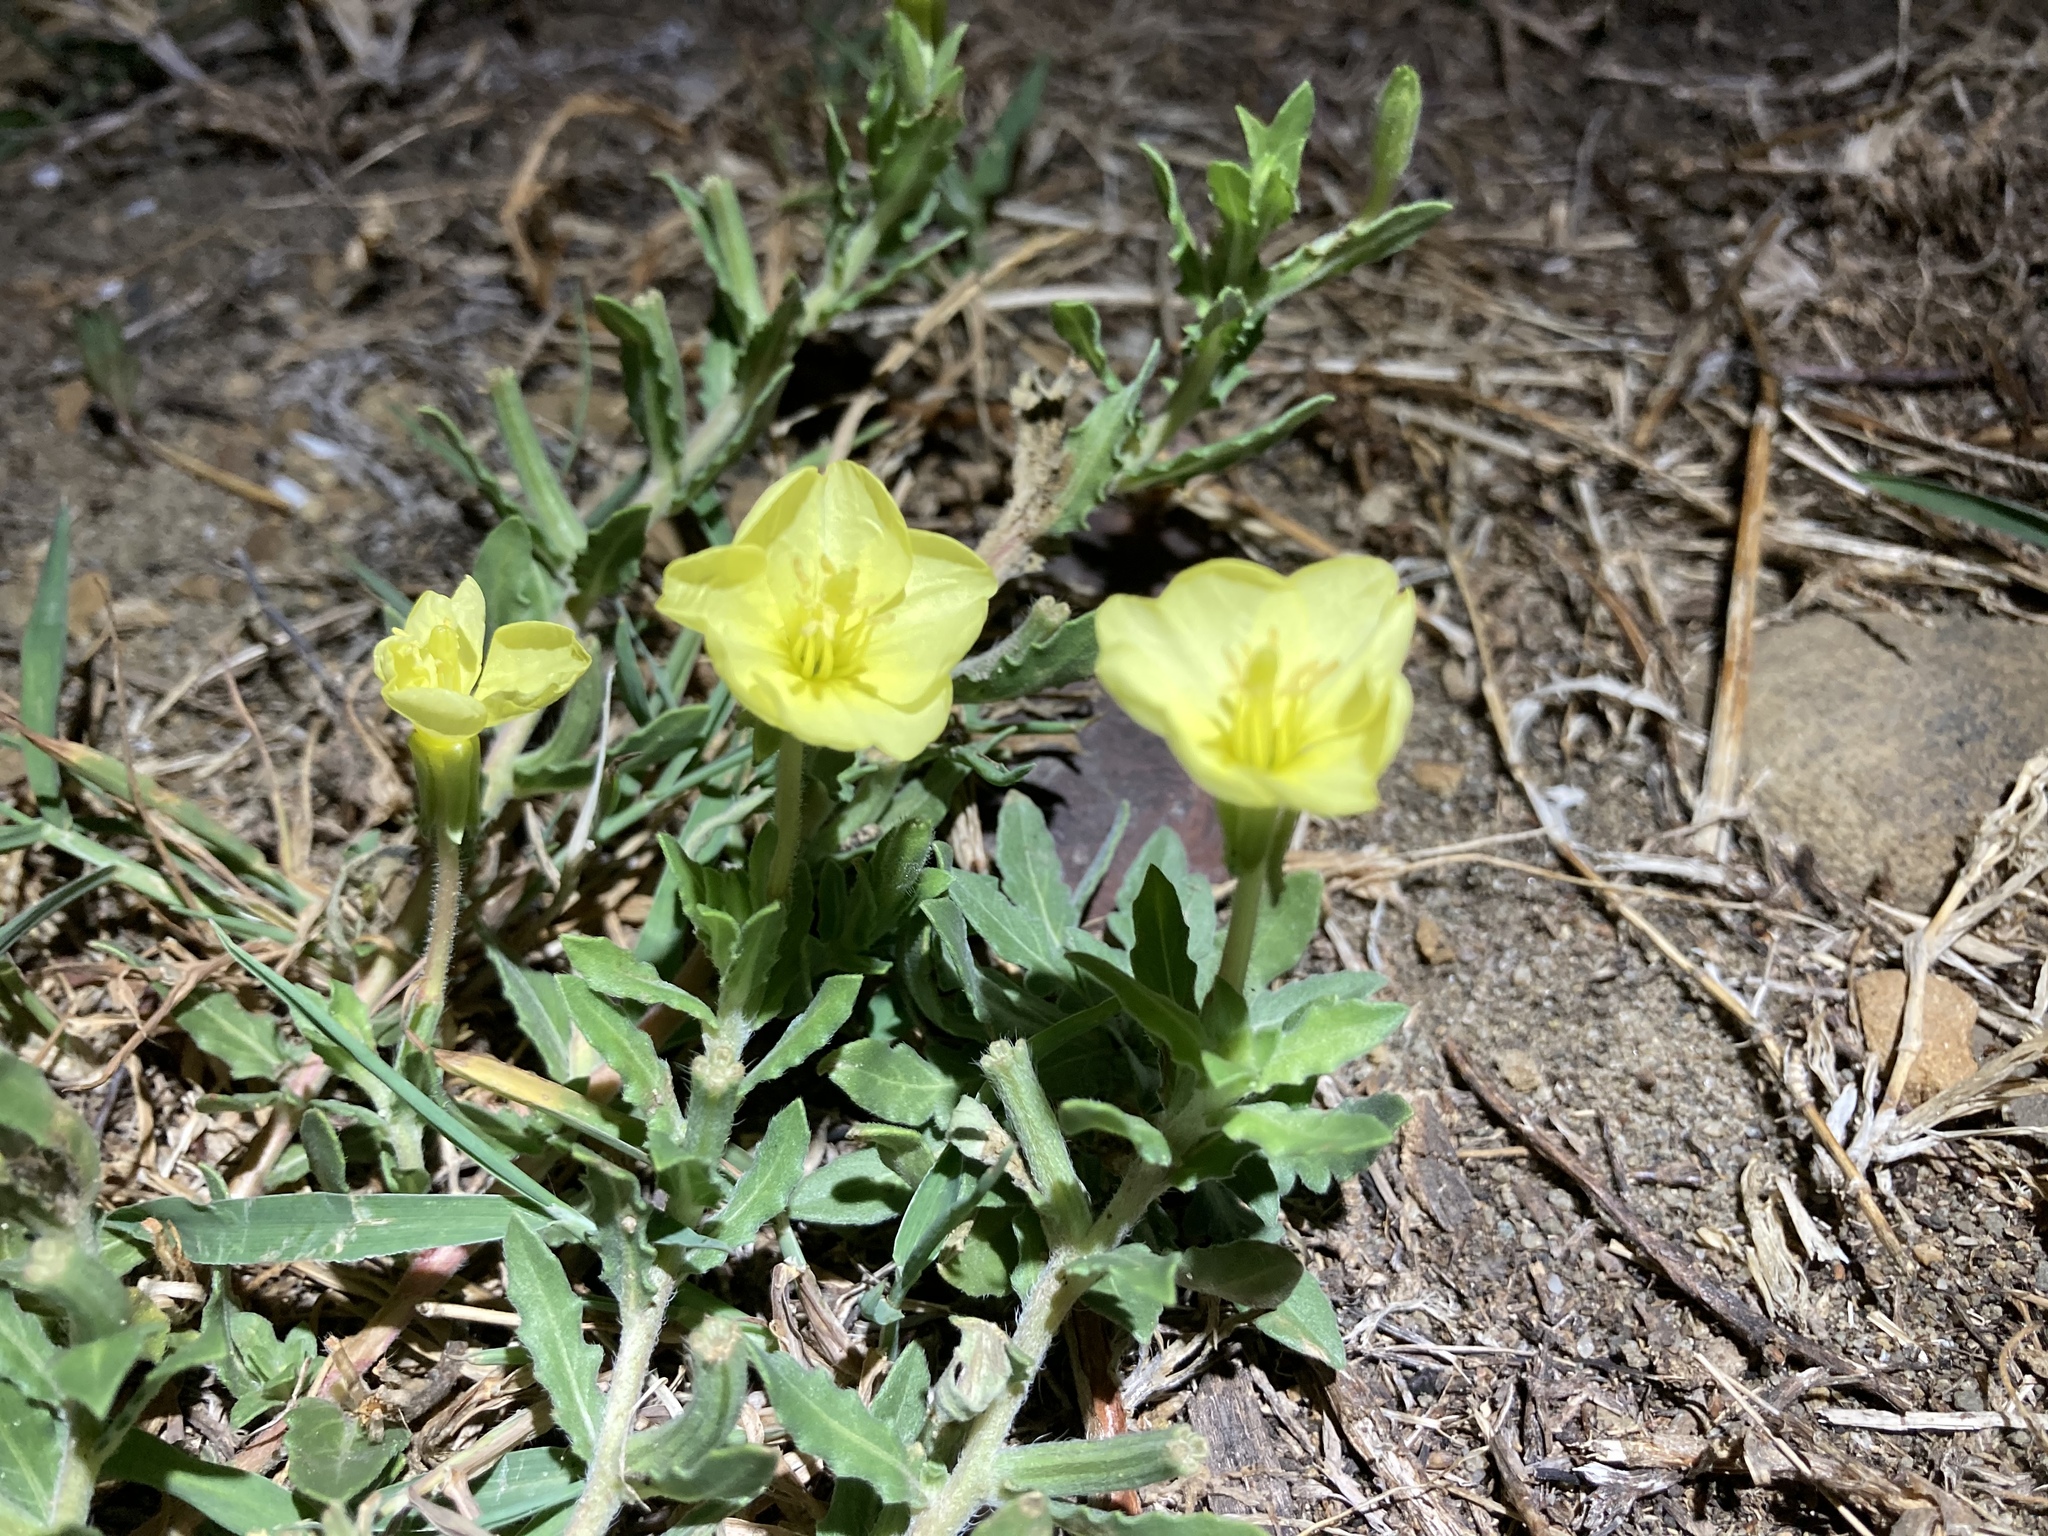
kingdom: Plantae
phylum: Tracheophyta
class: Magnoliopsida
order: Myrtales
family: Onagraceae
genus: Oenothera
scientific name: Oenothera laciniata
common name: Cut-leaved evening-primrose
